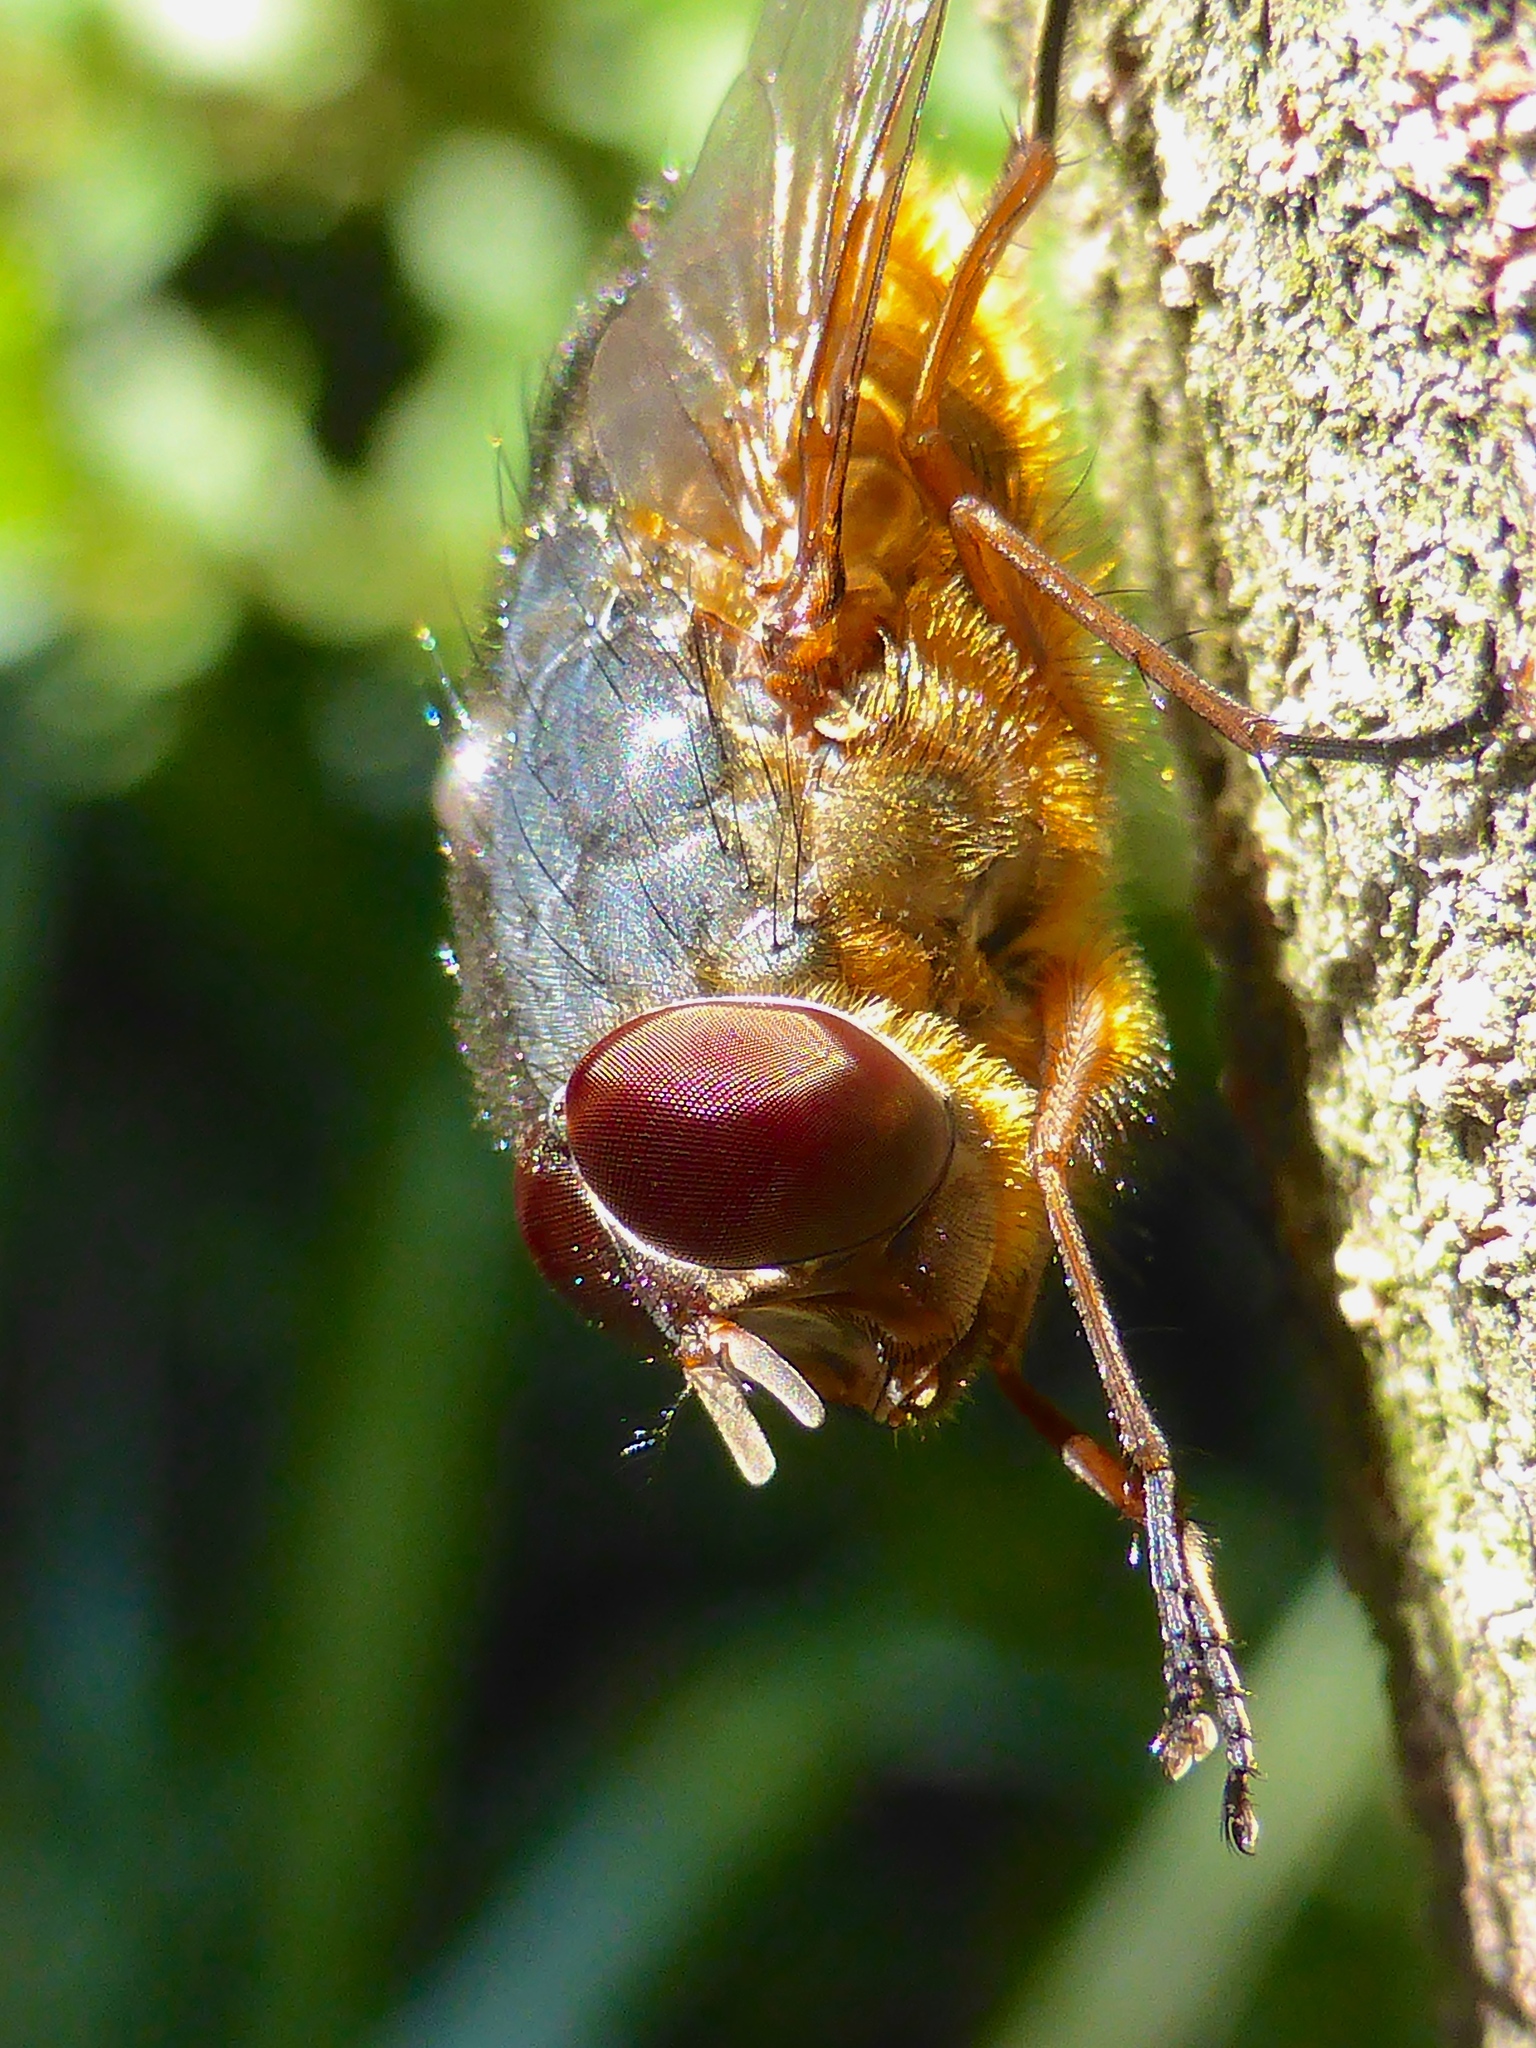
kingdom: Animalia
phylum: Arthropoda
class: Insecta
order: Diptera
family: Calliphoridae
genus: Calliphora
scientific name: Calliphora stygia
